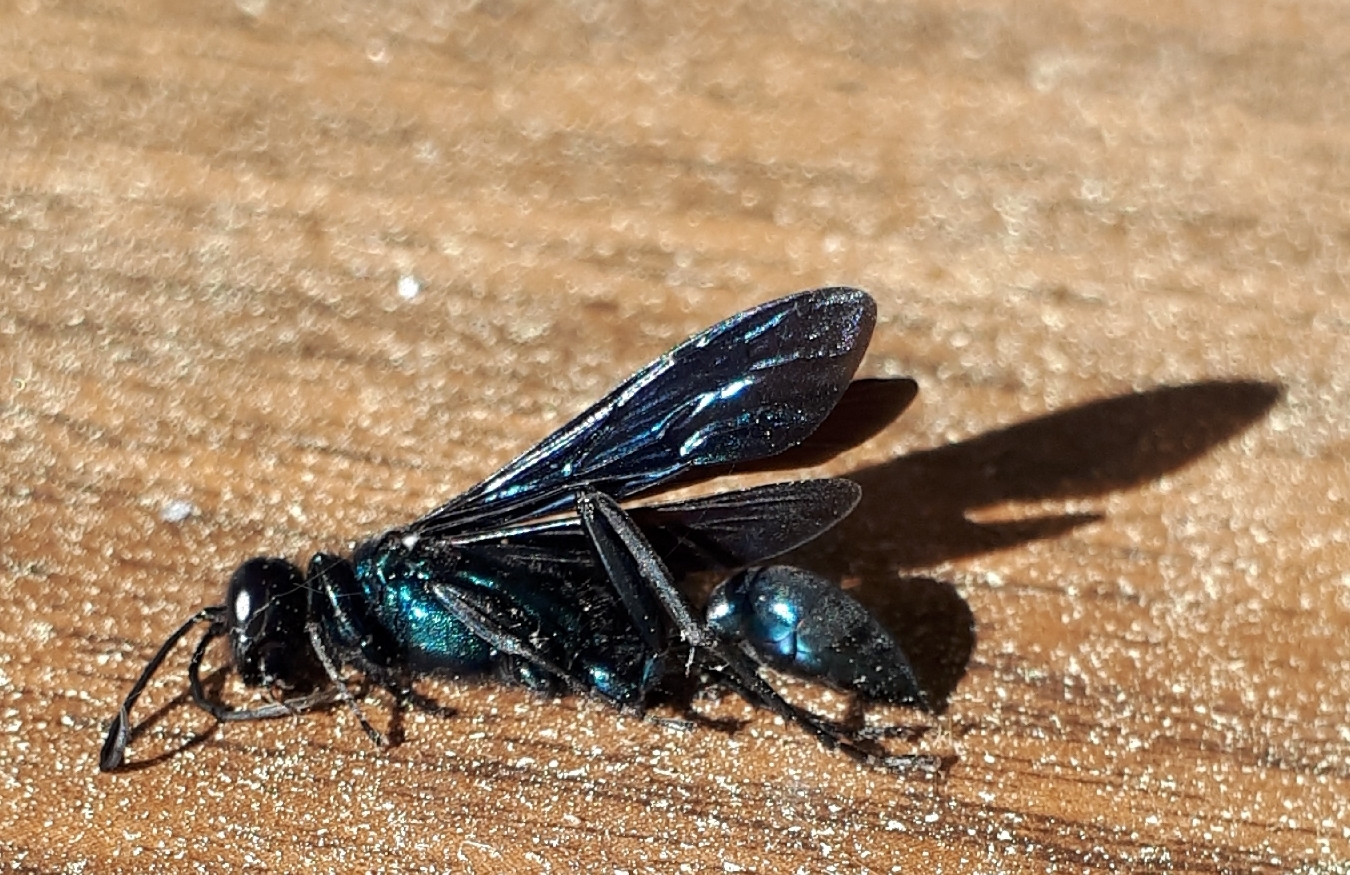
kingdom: Animalia
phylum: Arthropoda
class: Insecta
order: Hymenoptera
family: Sphecidae
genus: Chalybion
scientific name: Chalybion californicum
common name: Mud dauber
